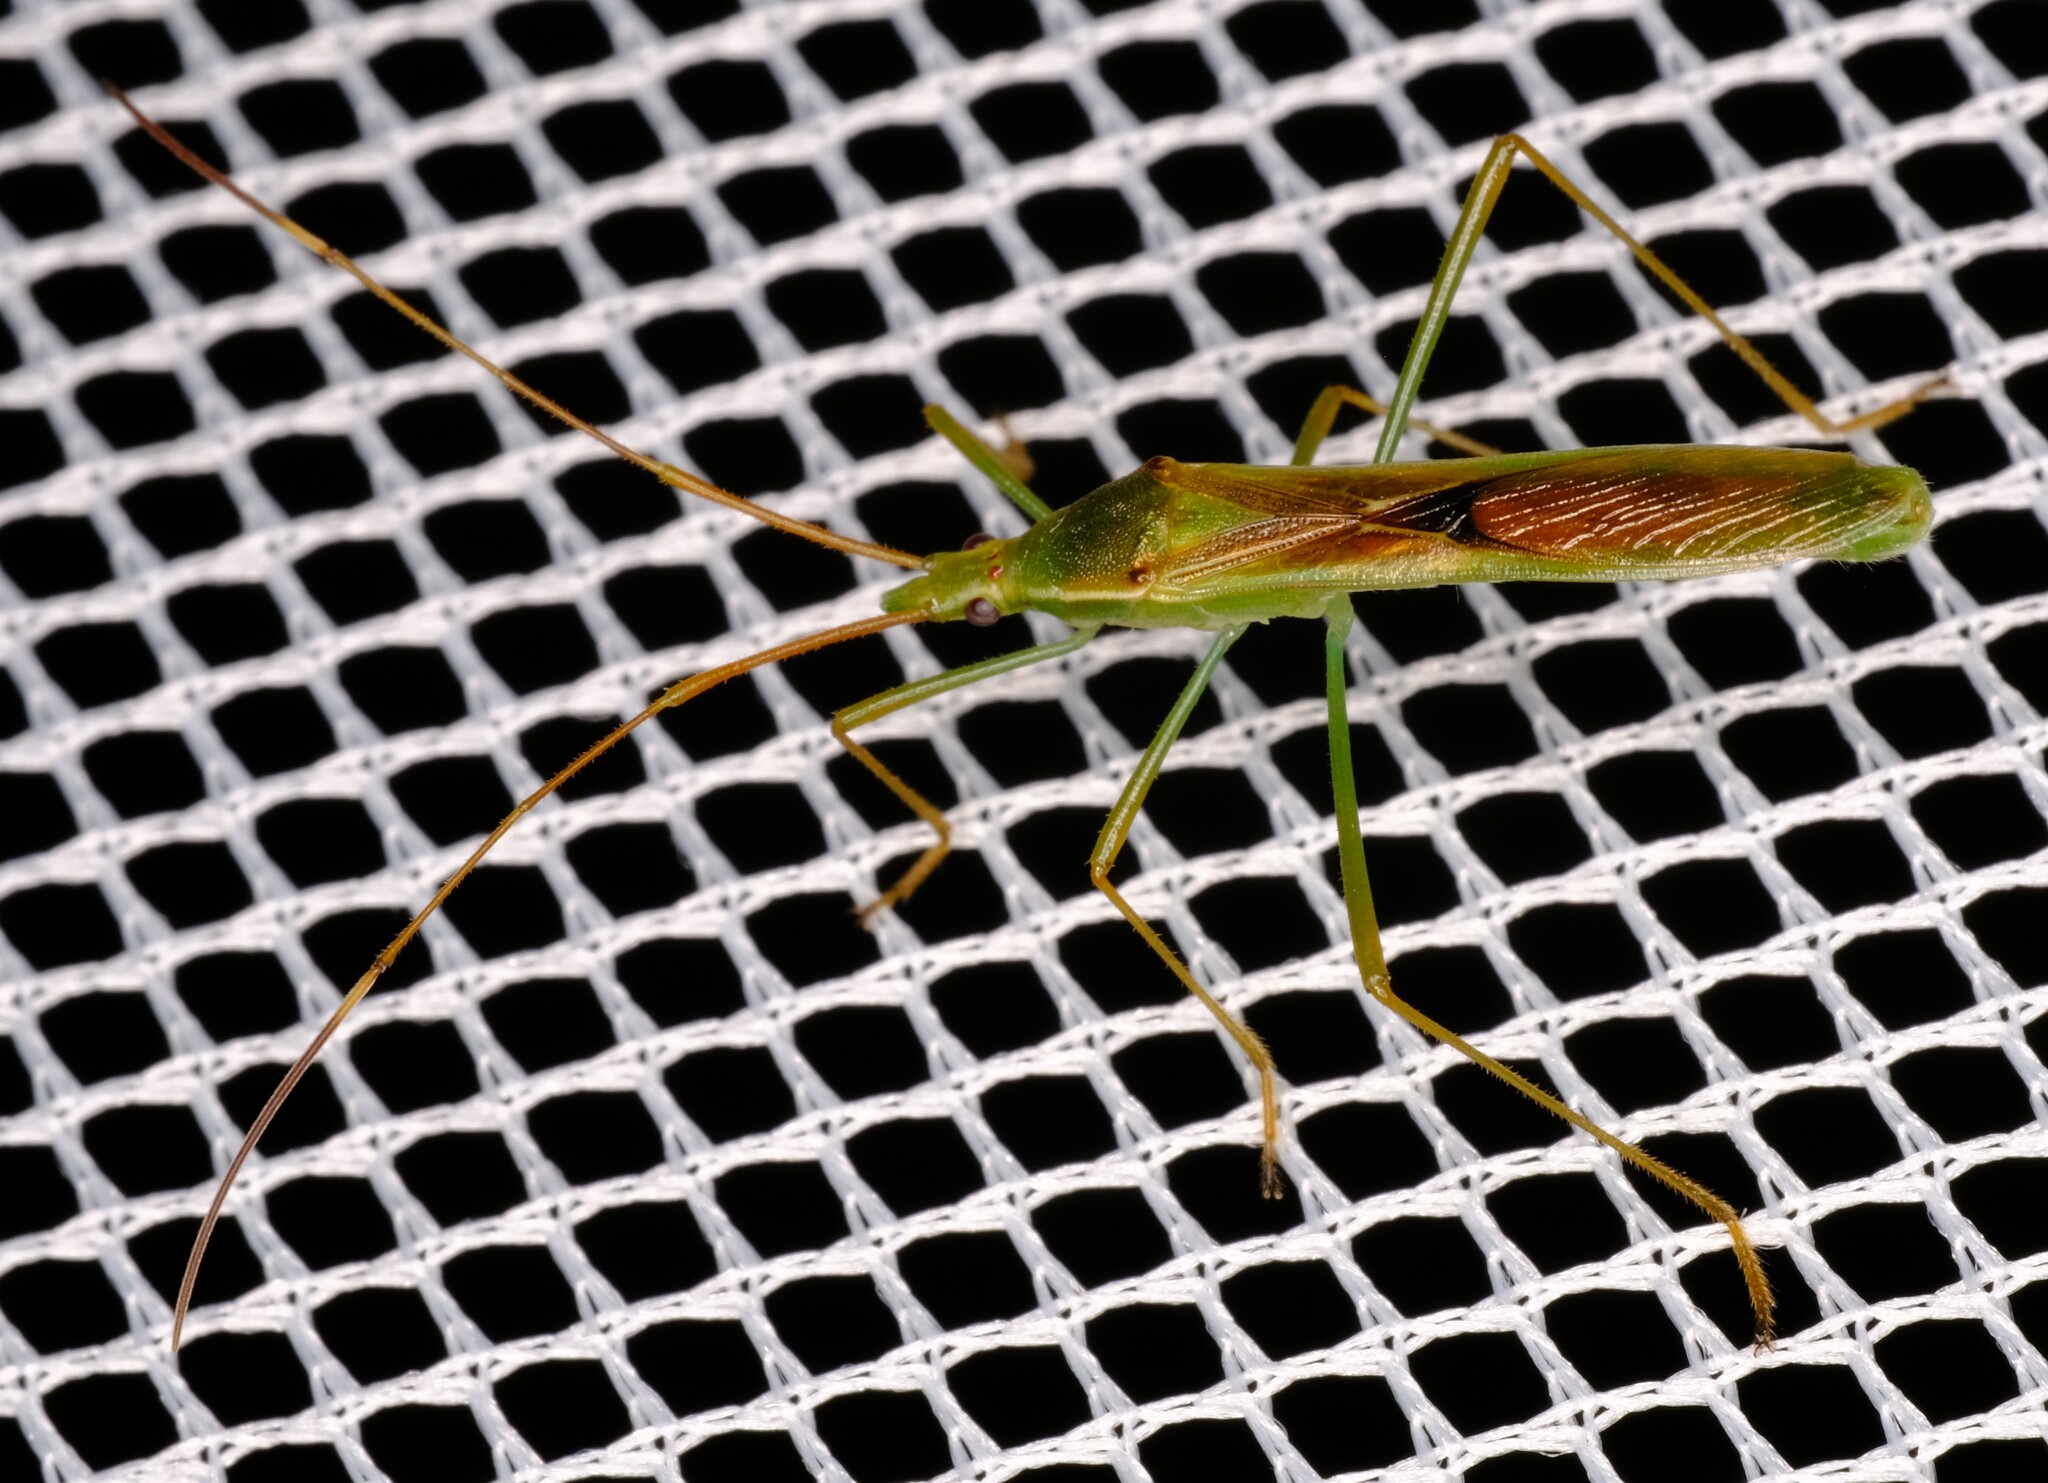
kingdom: Animalia
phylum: Arthropoda
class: Insecta
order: Hemiptera
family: Alydidae
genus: Leptocorisa
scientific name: Leptocorisa acuta
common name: Gandhi bug
